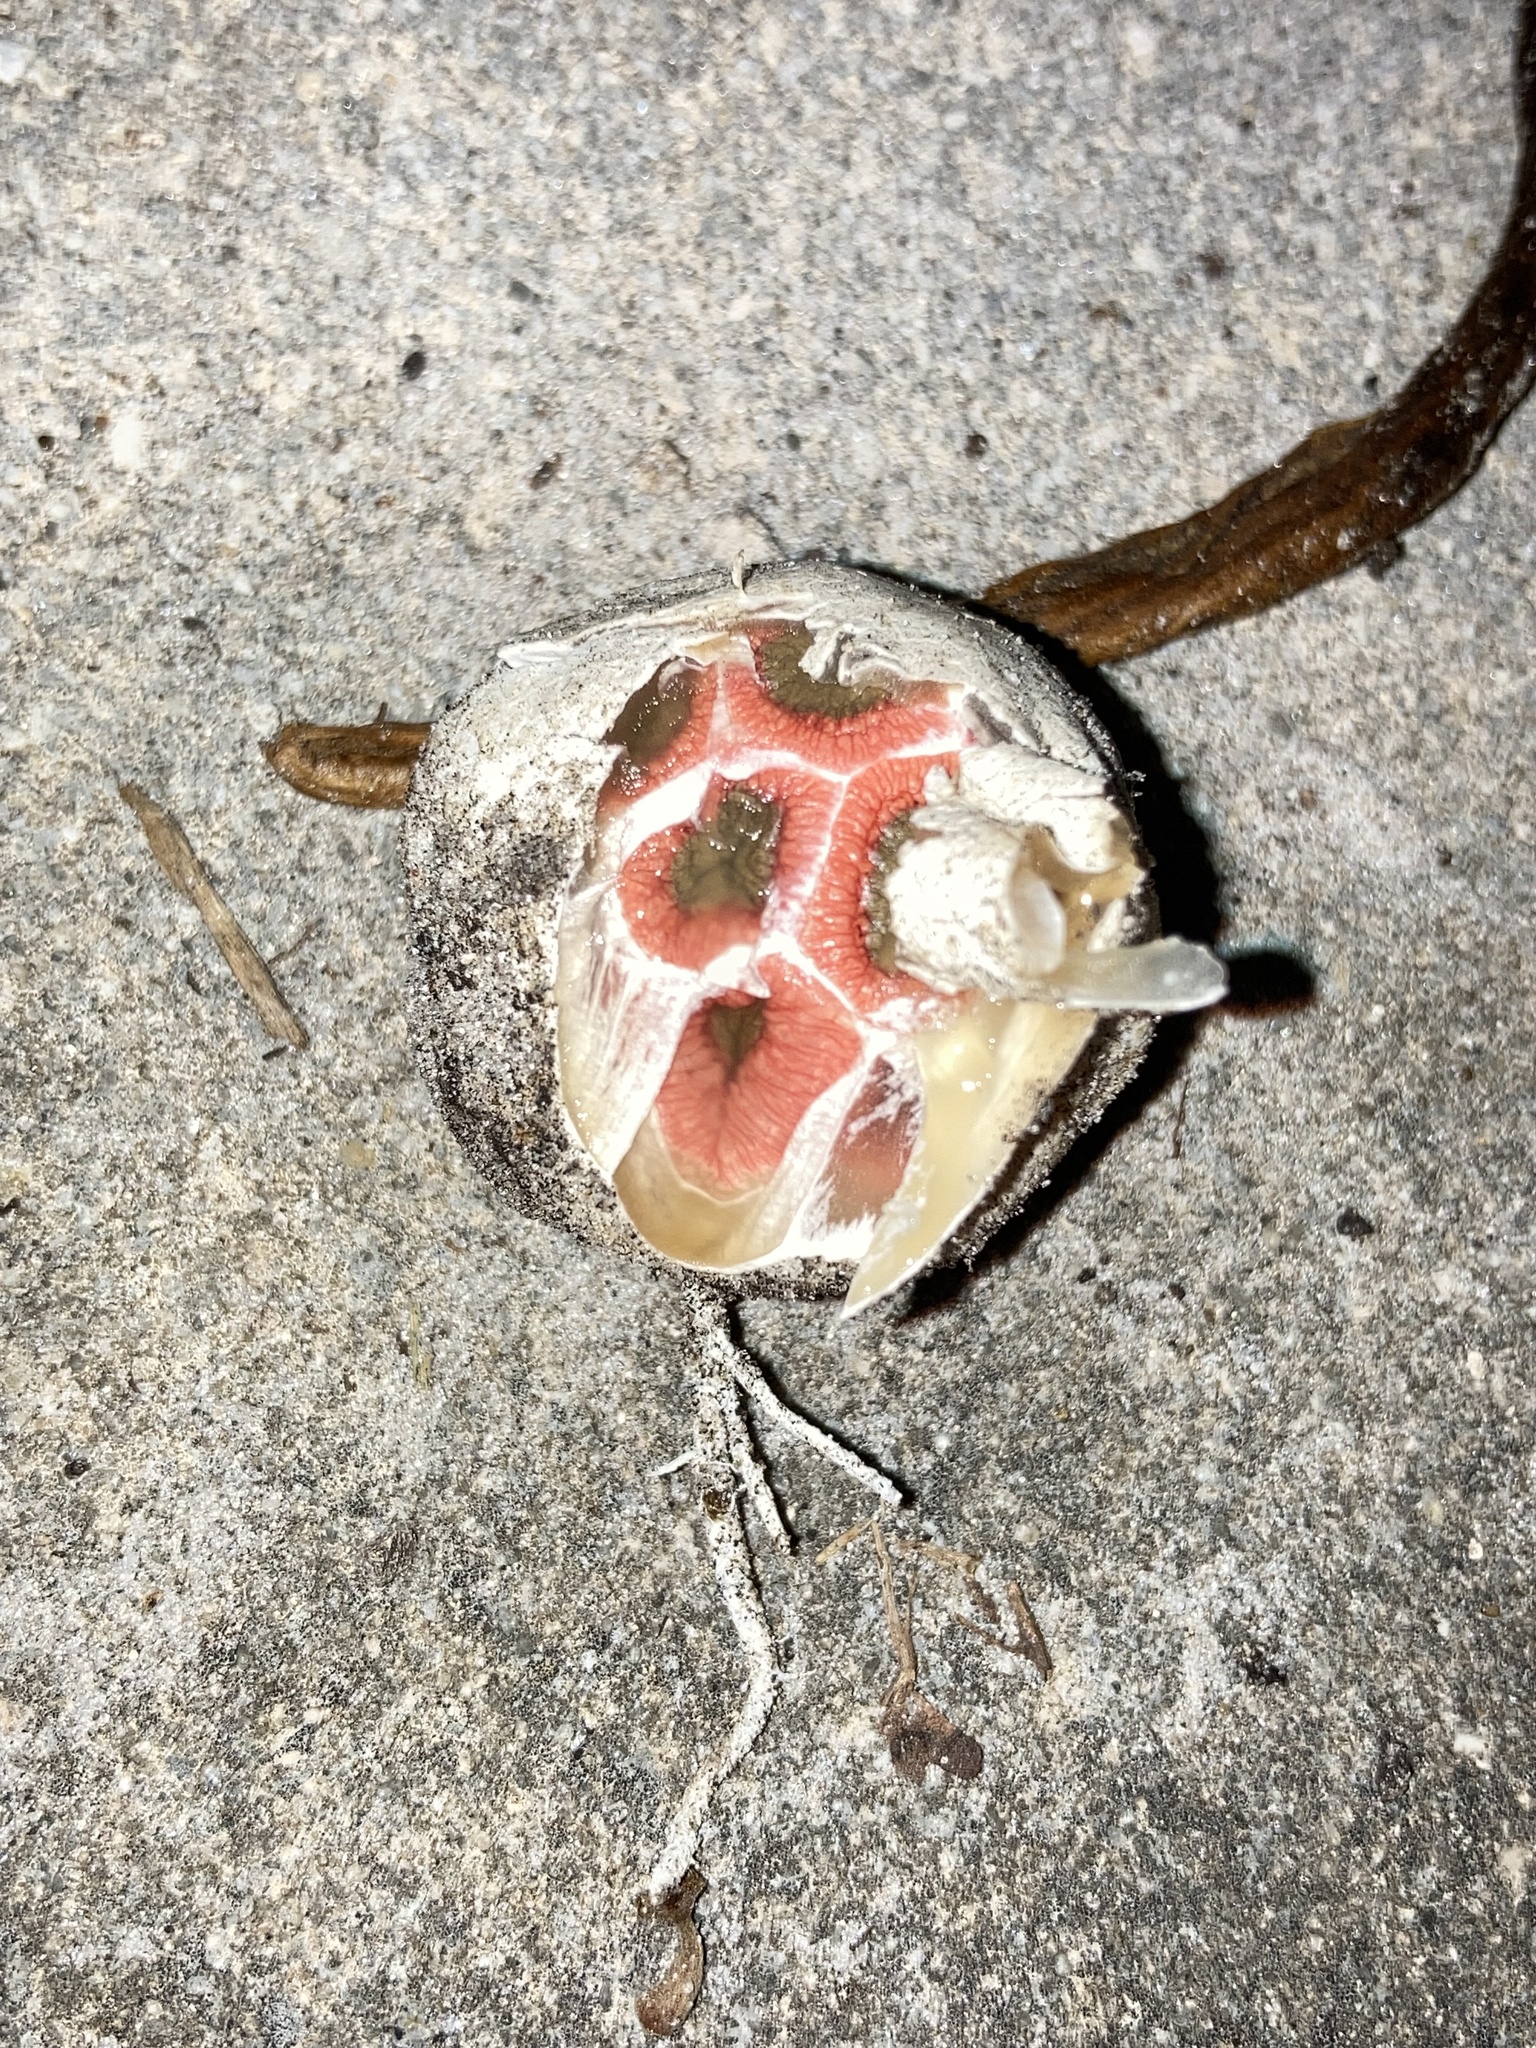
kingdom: Fungi
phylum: Basidiomycota
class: Agaricomycetes
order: Phallales
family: Phallaceae
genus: Clathrus
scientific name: Clathrus crispatus
